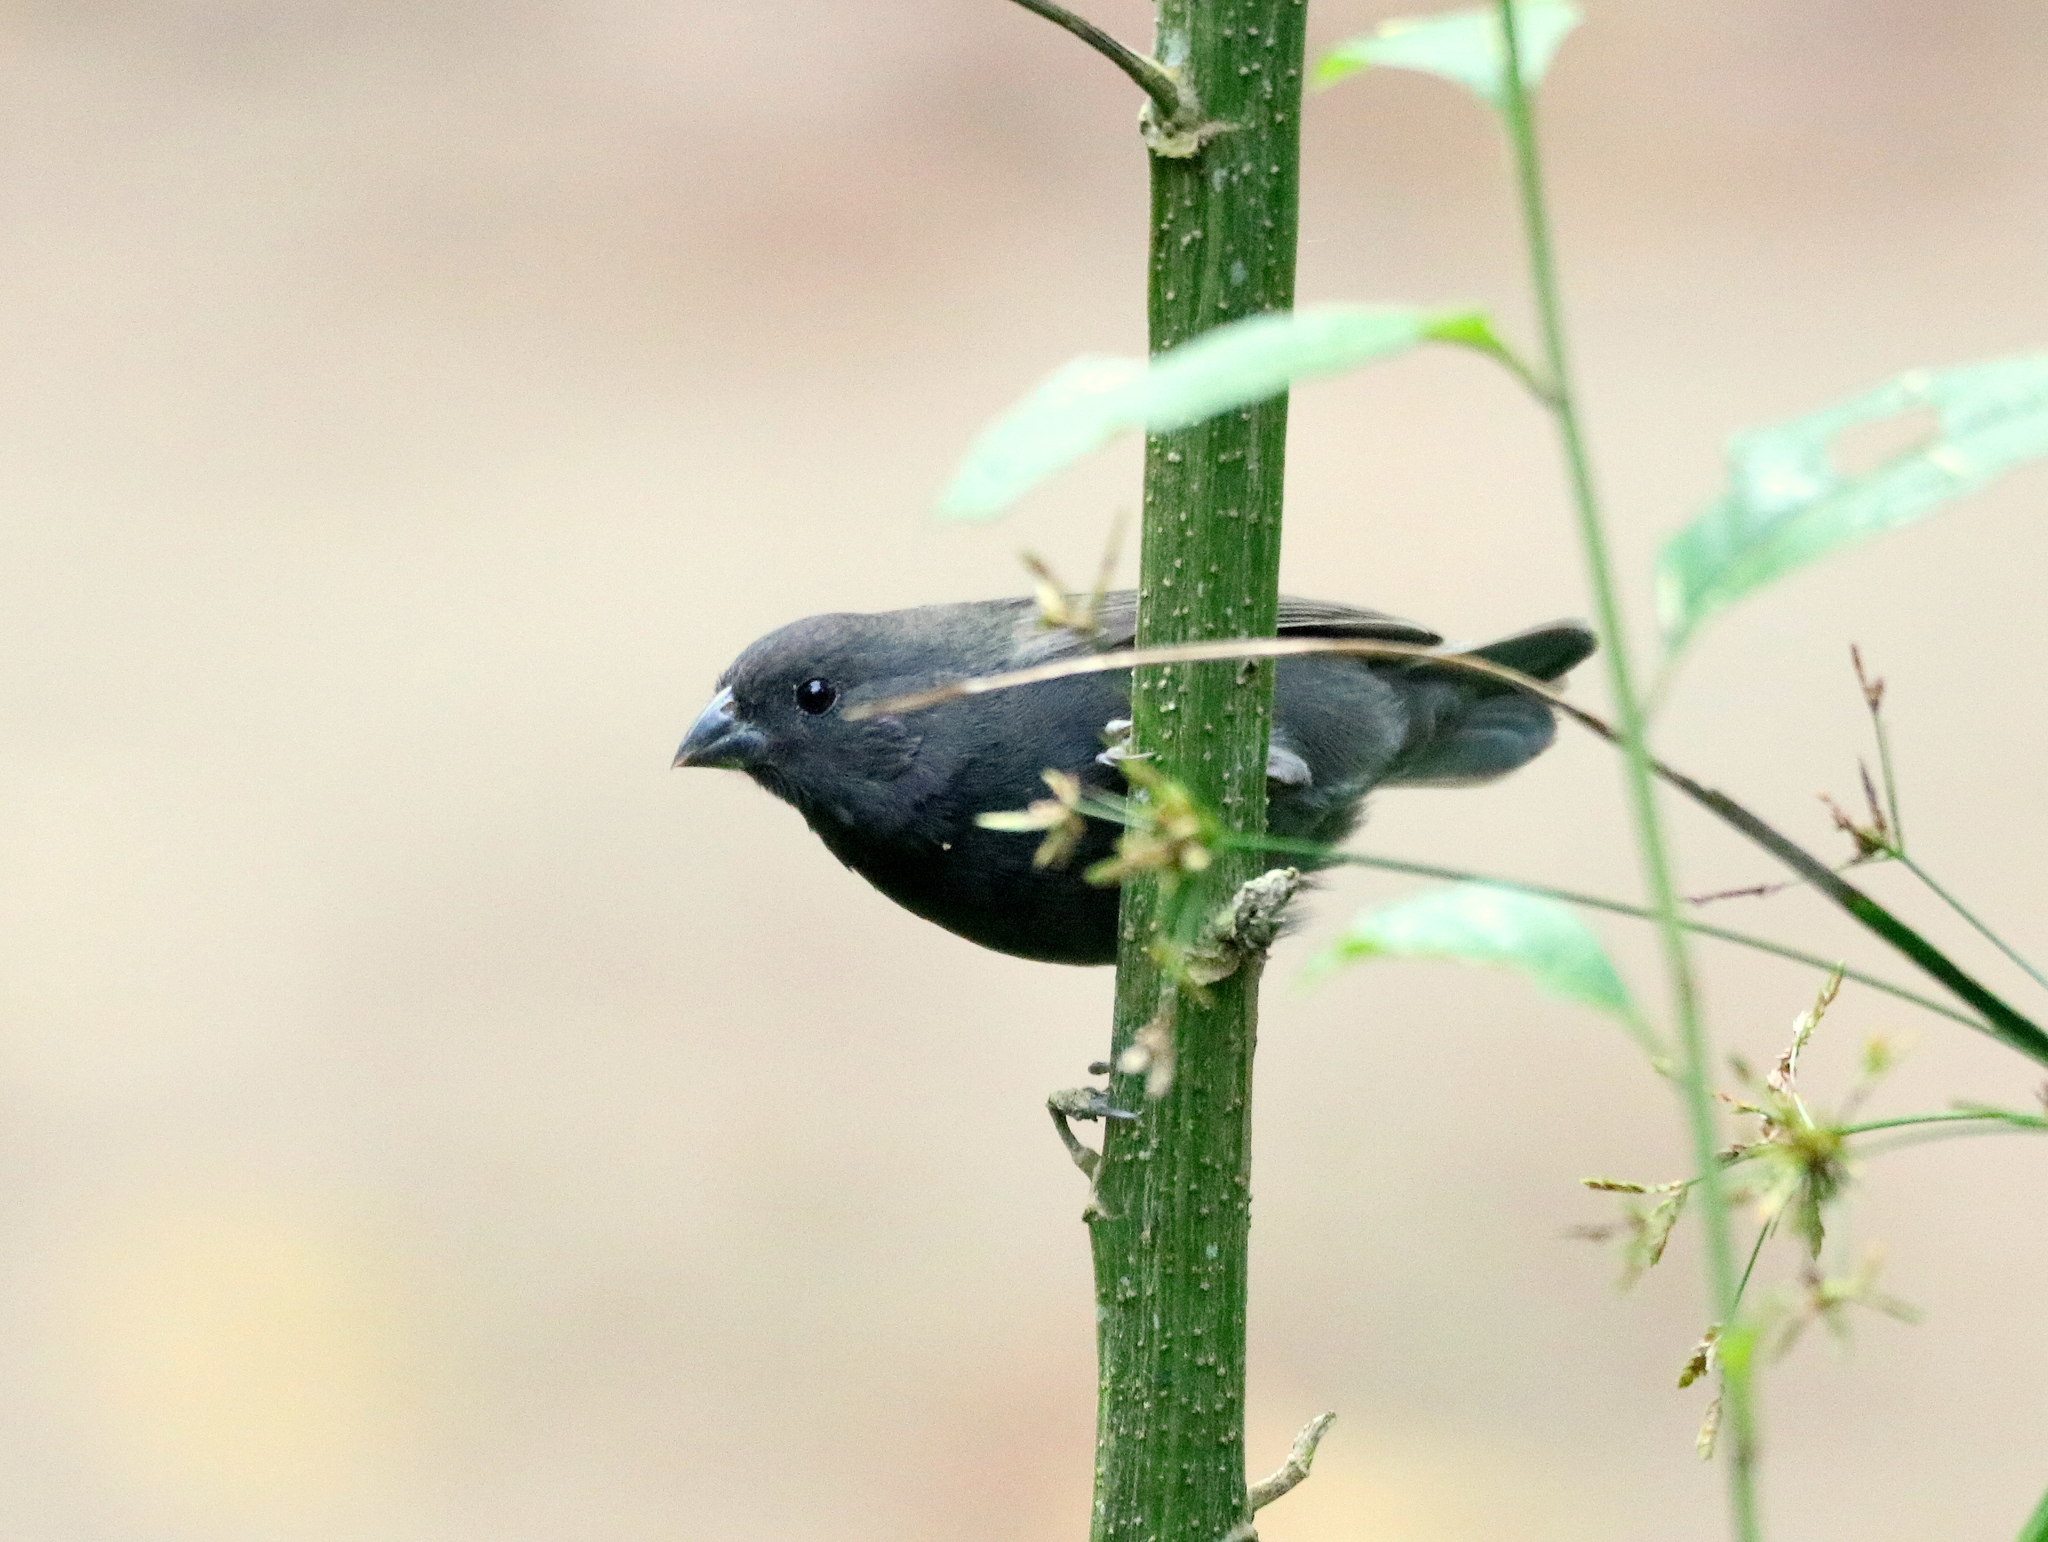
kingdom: Animalia
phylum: Chordata
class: Aves
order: Passeriformes
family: Thraupidae
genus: Asemospiza
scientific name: Asemospiza fuliginosa
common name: Sooty grassquit
